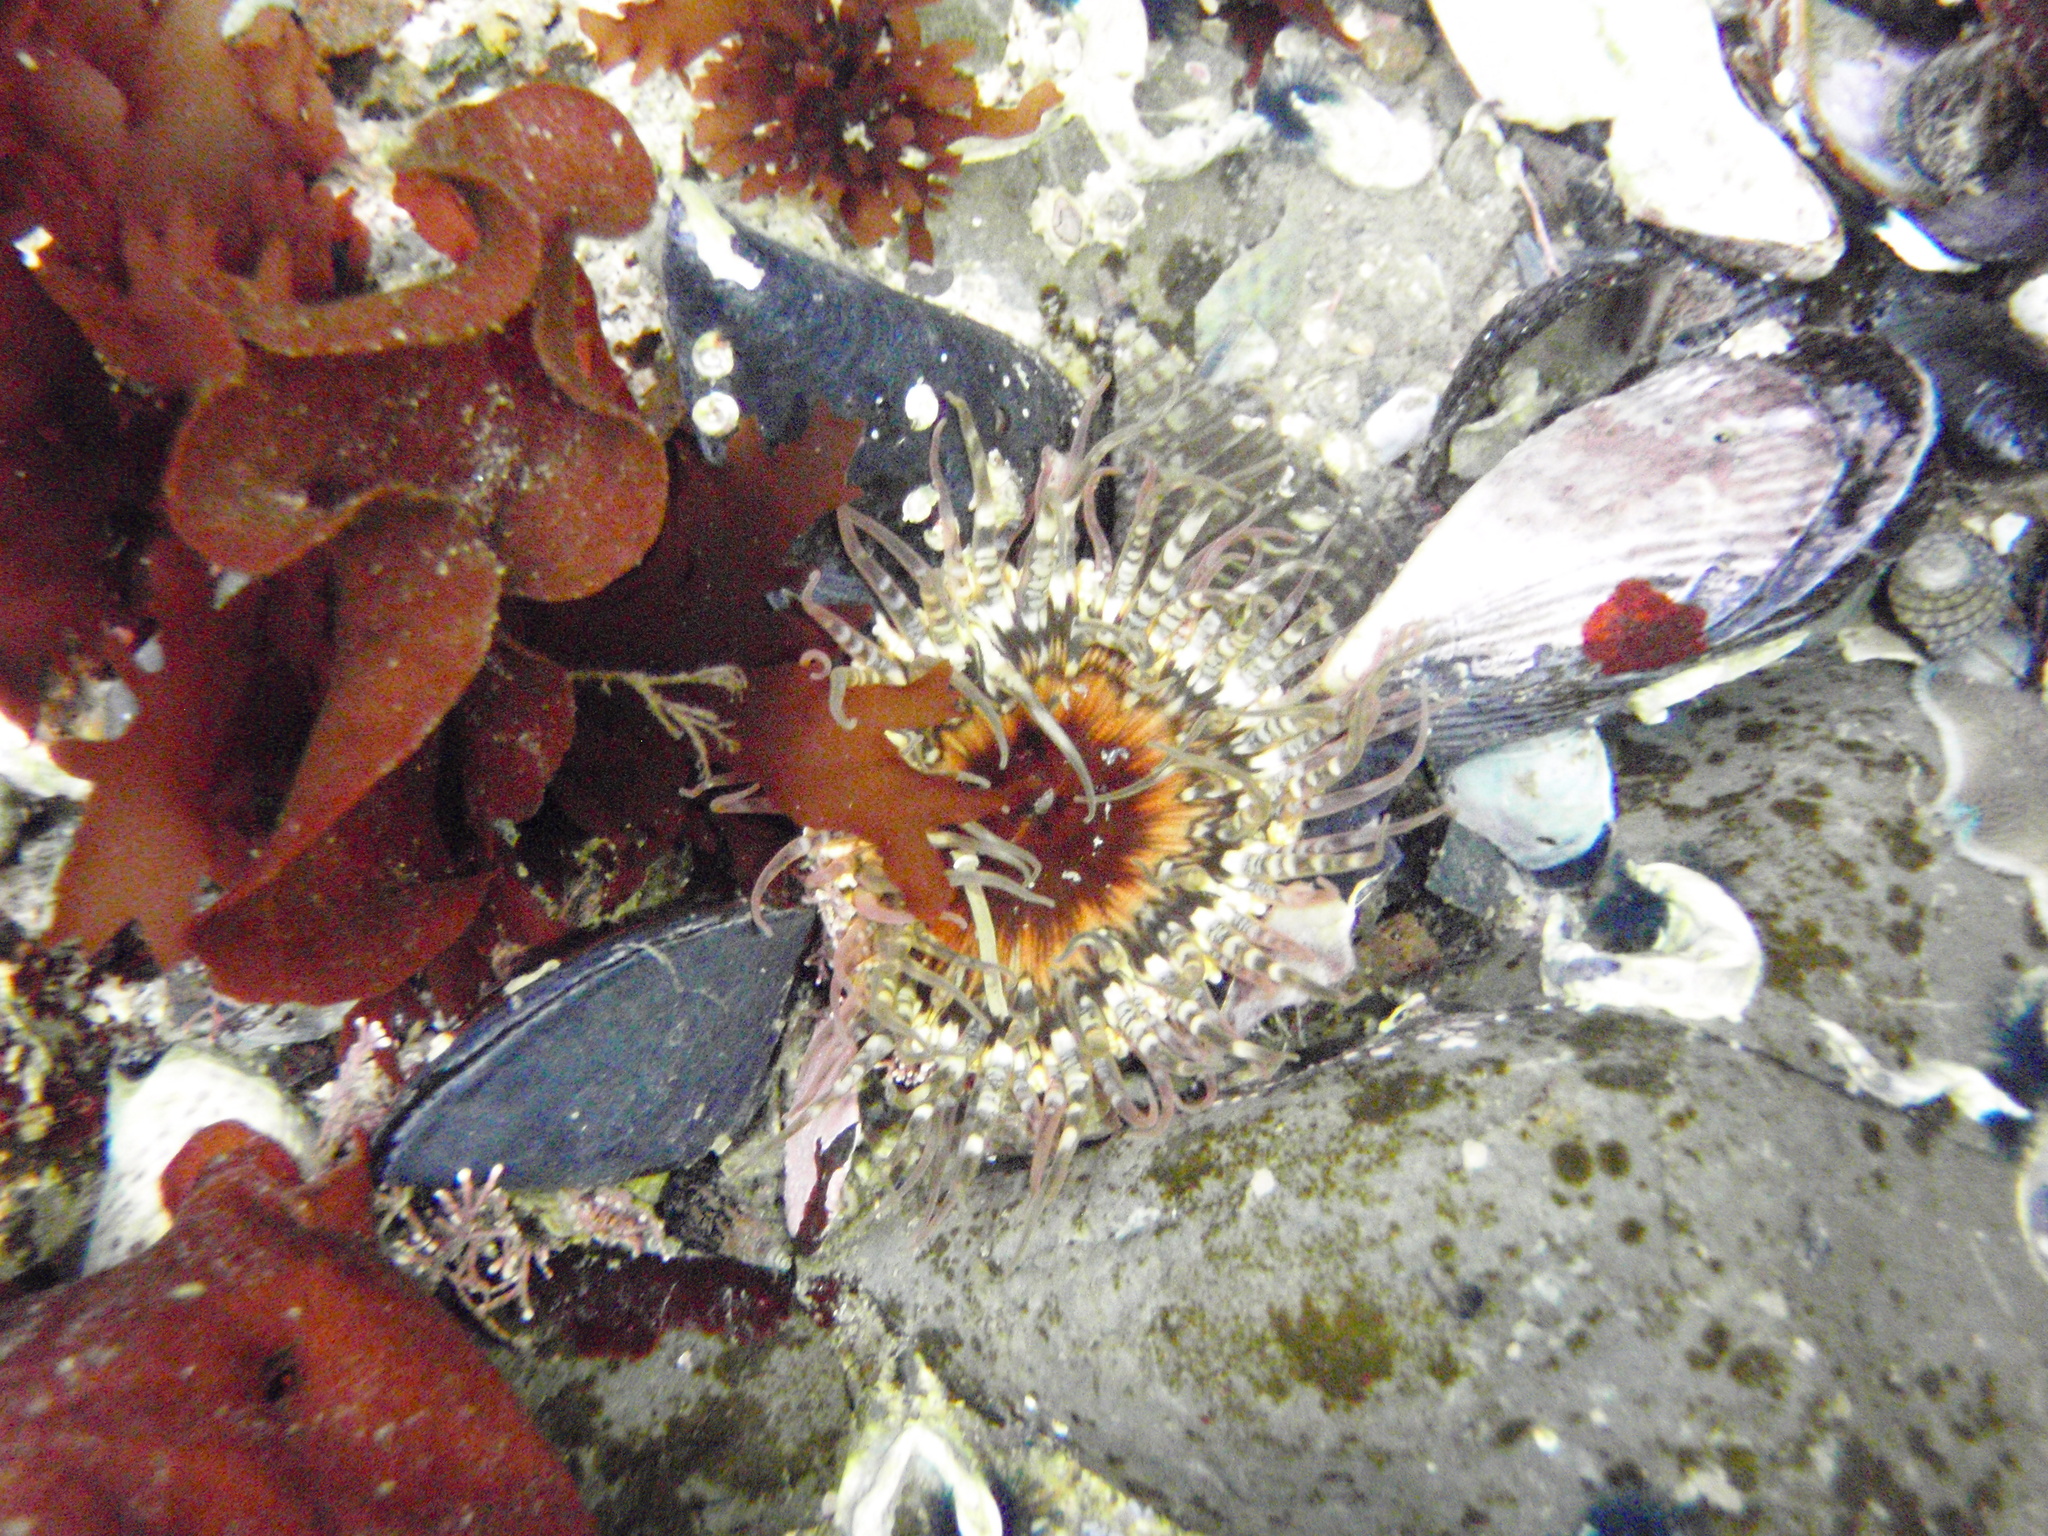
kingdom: Animalia
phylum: Cnidaria
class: Anthozoa
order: Actiniaria
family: Actiniidae
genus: Oulactis
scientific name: Oulactis muscosa
